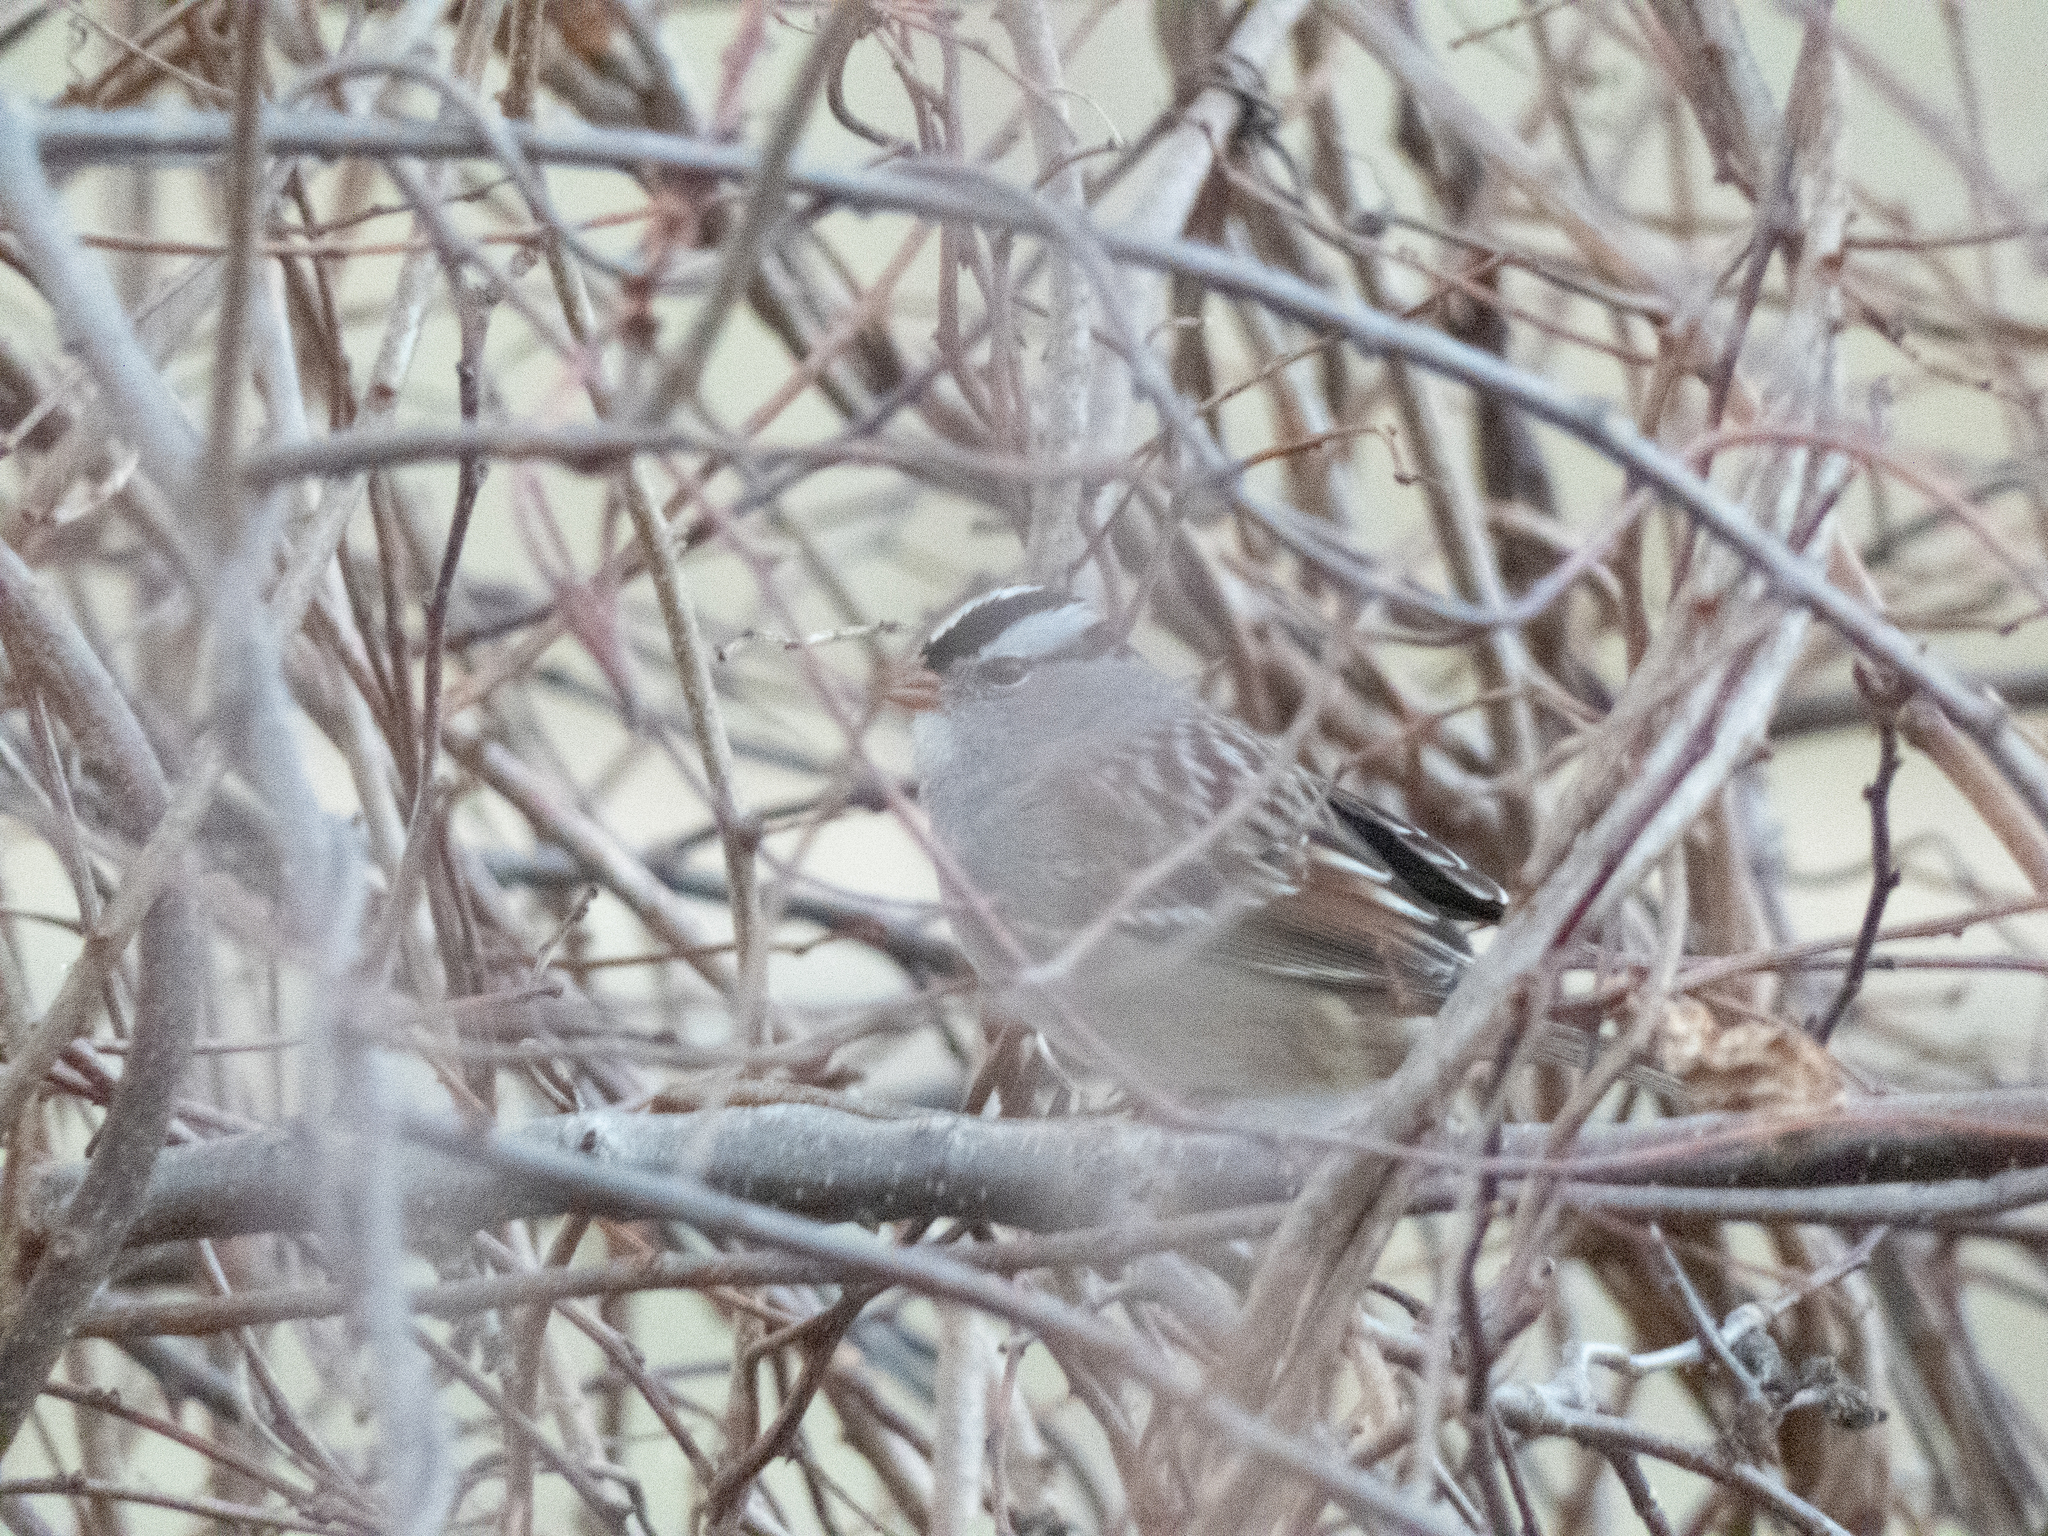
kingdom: Animalia
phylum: Chordata
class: Aves
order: Passeriformes
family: Passerellidae
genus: Zonotrichia
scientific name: Zonotrichia leucophrys
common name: White-crowned sparrow
